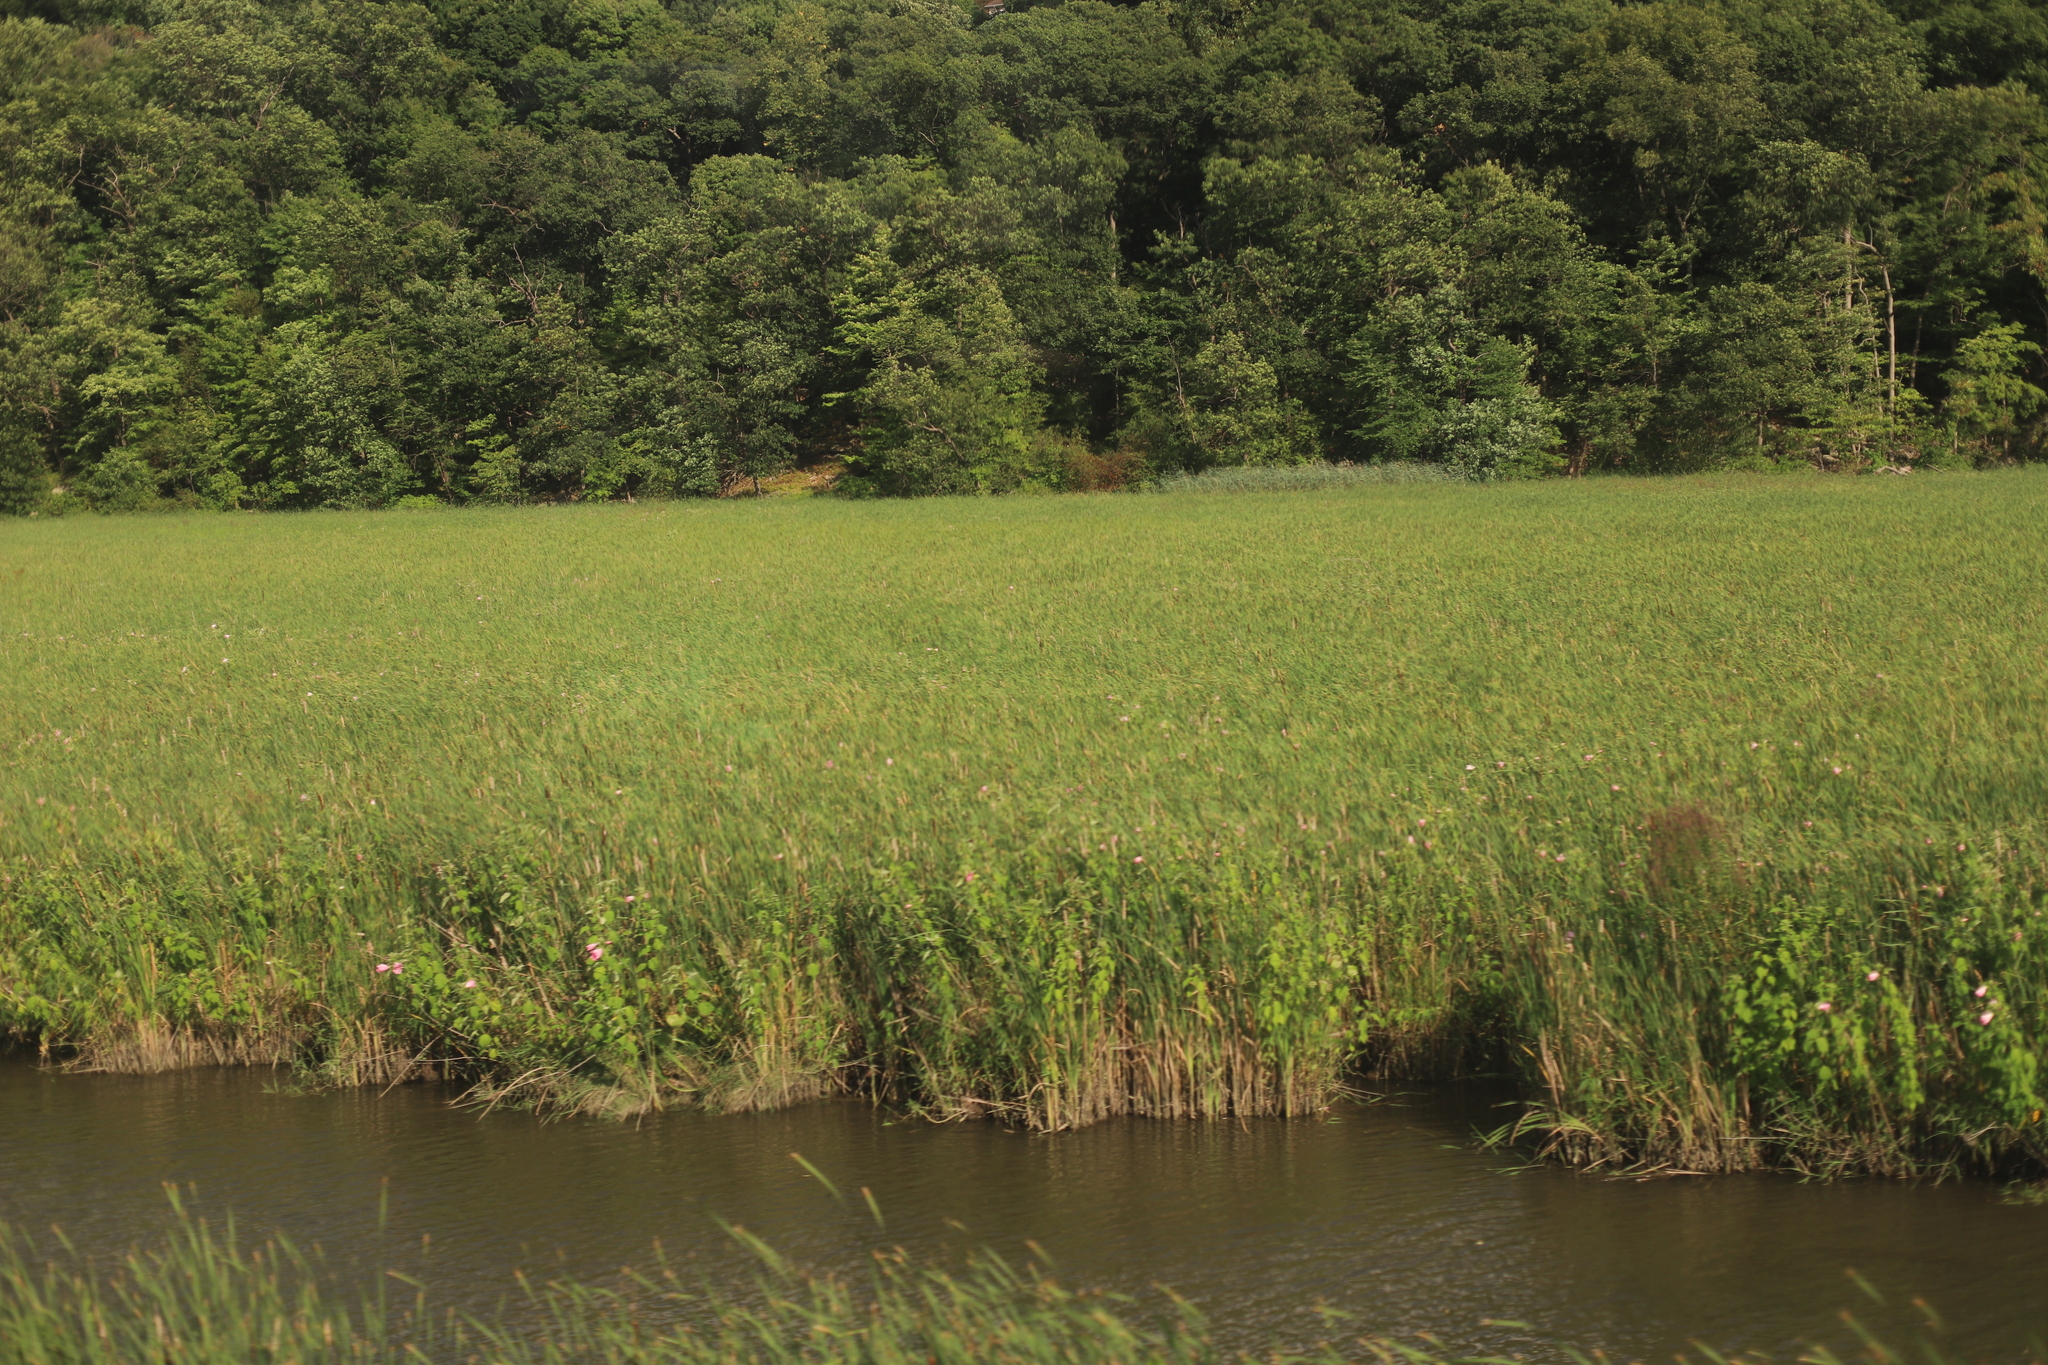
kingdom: Plantae
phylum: Tracheophyta
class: Magnoliopsida
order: Malvales
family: Malvaceae
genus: Hibiscus
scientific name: Hibiscus moscheutos
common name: Common rose-mallow
